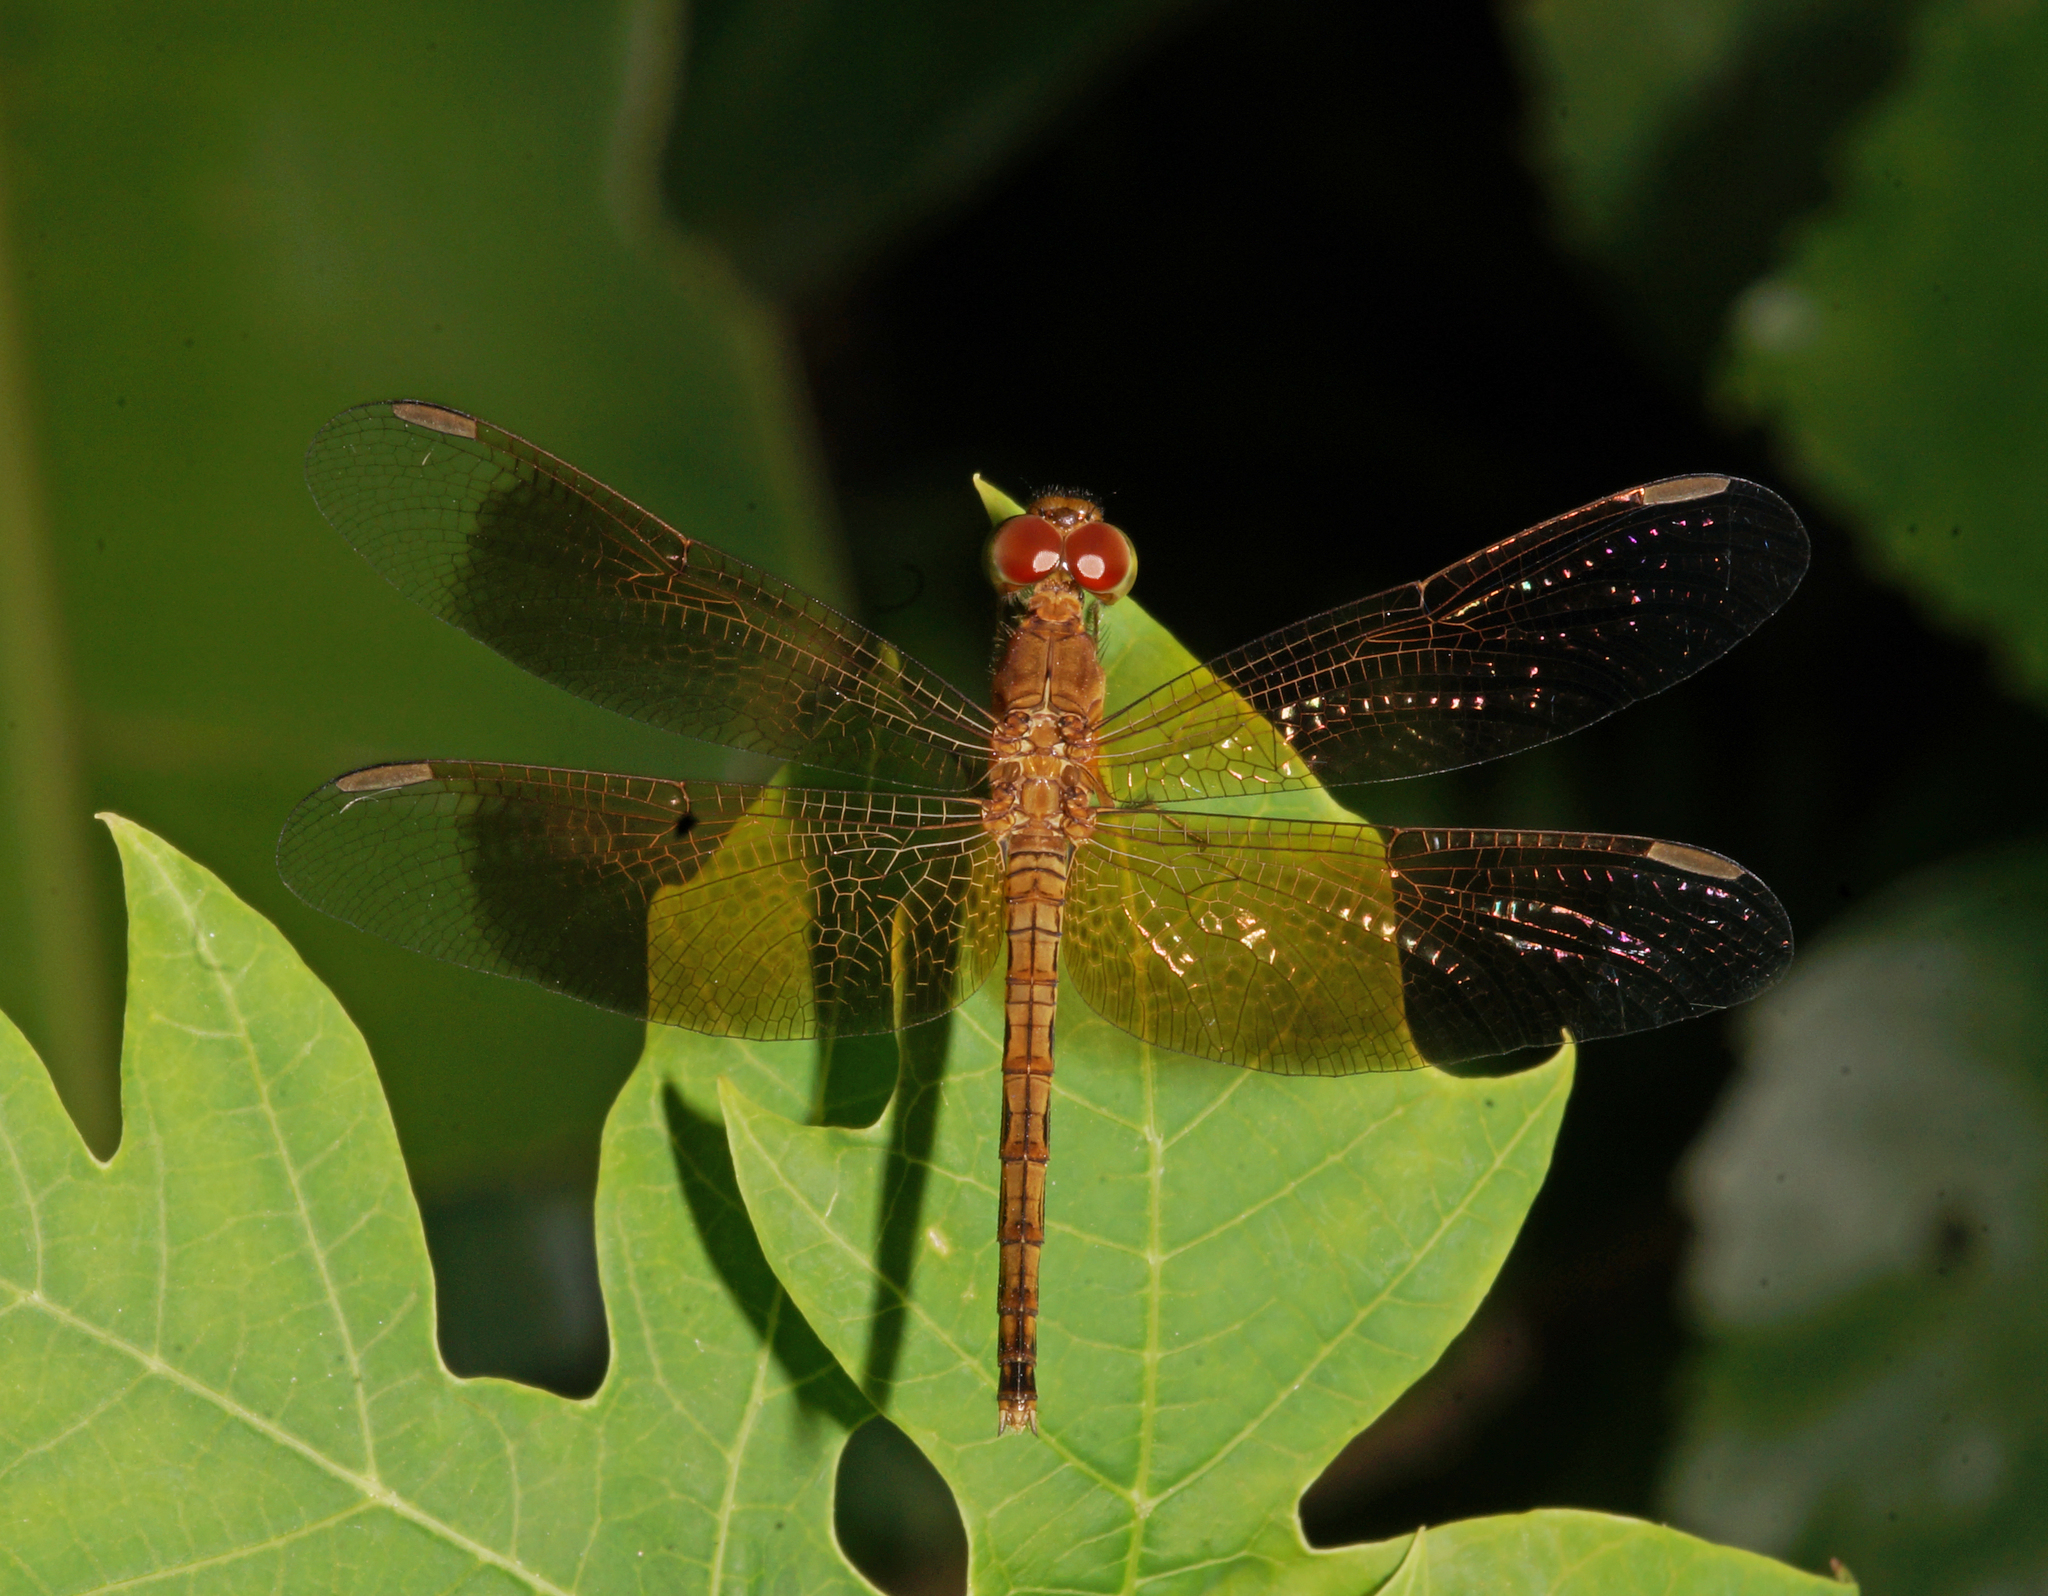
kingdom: Animalia
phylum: Arthropoda
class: Insecta
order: Odonata
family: Libellulidae
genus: Neurothemis
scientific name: Neurothemis fluctuans
